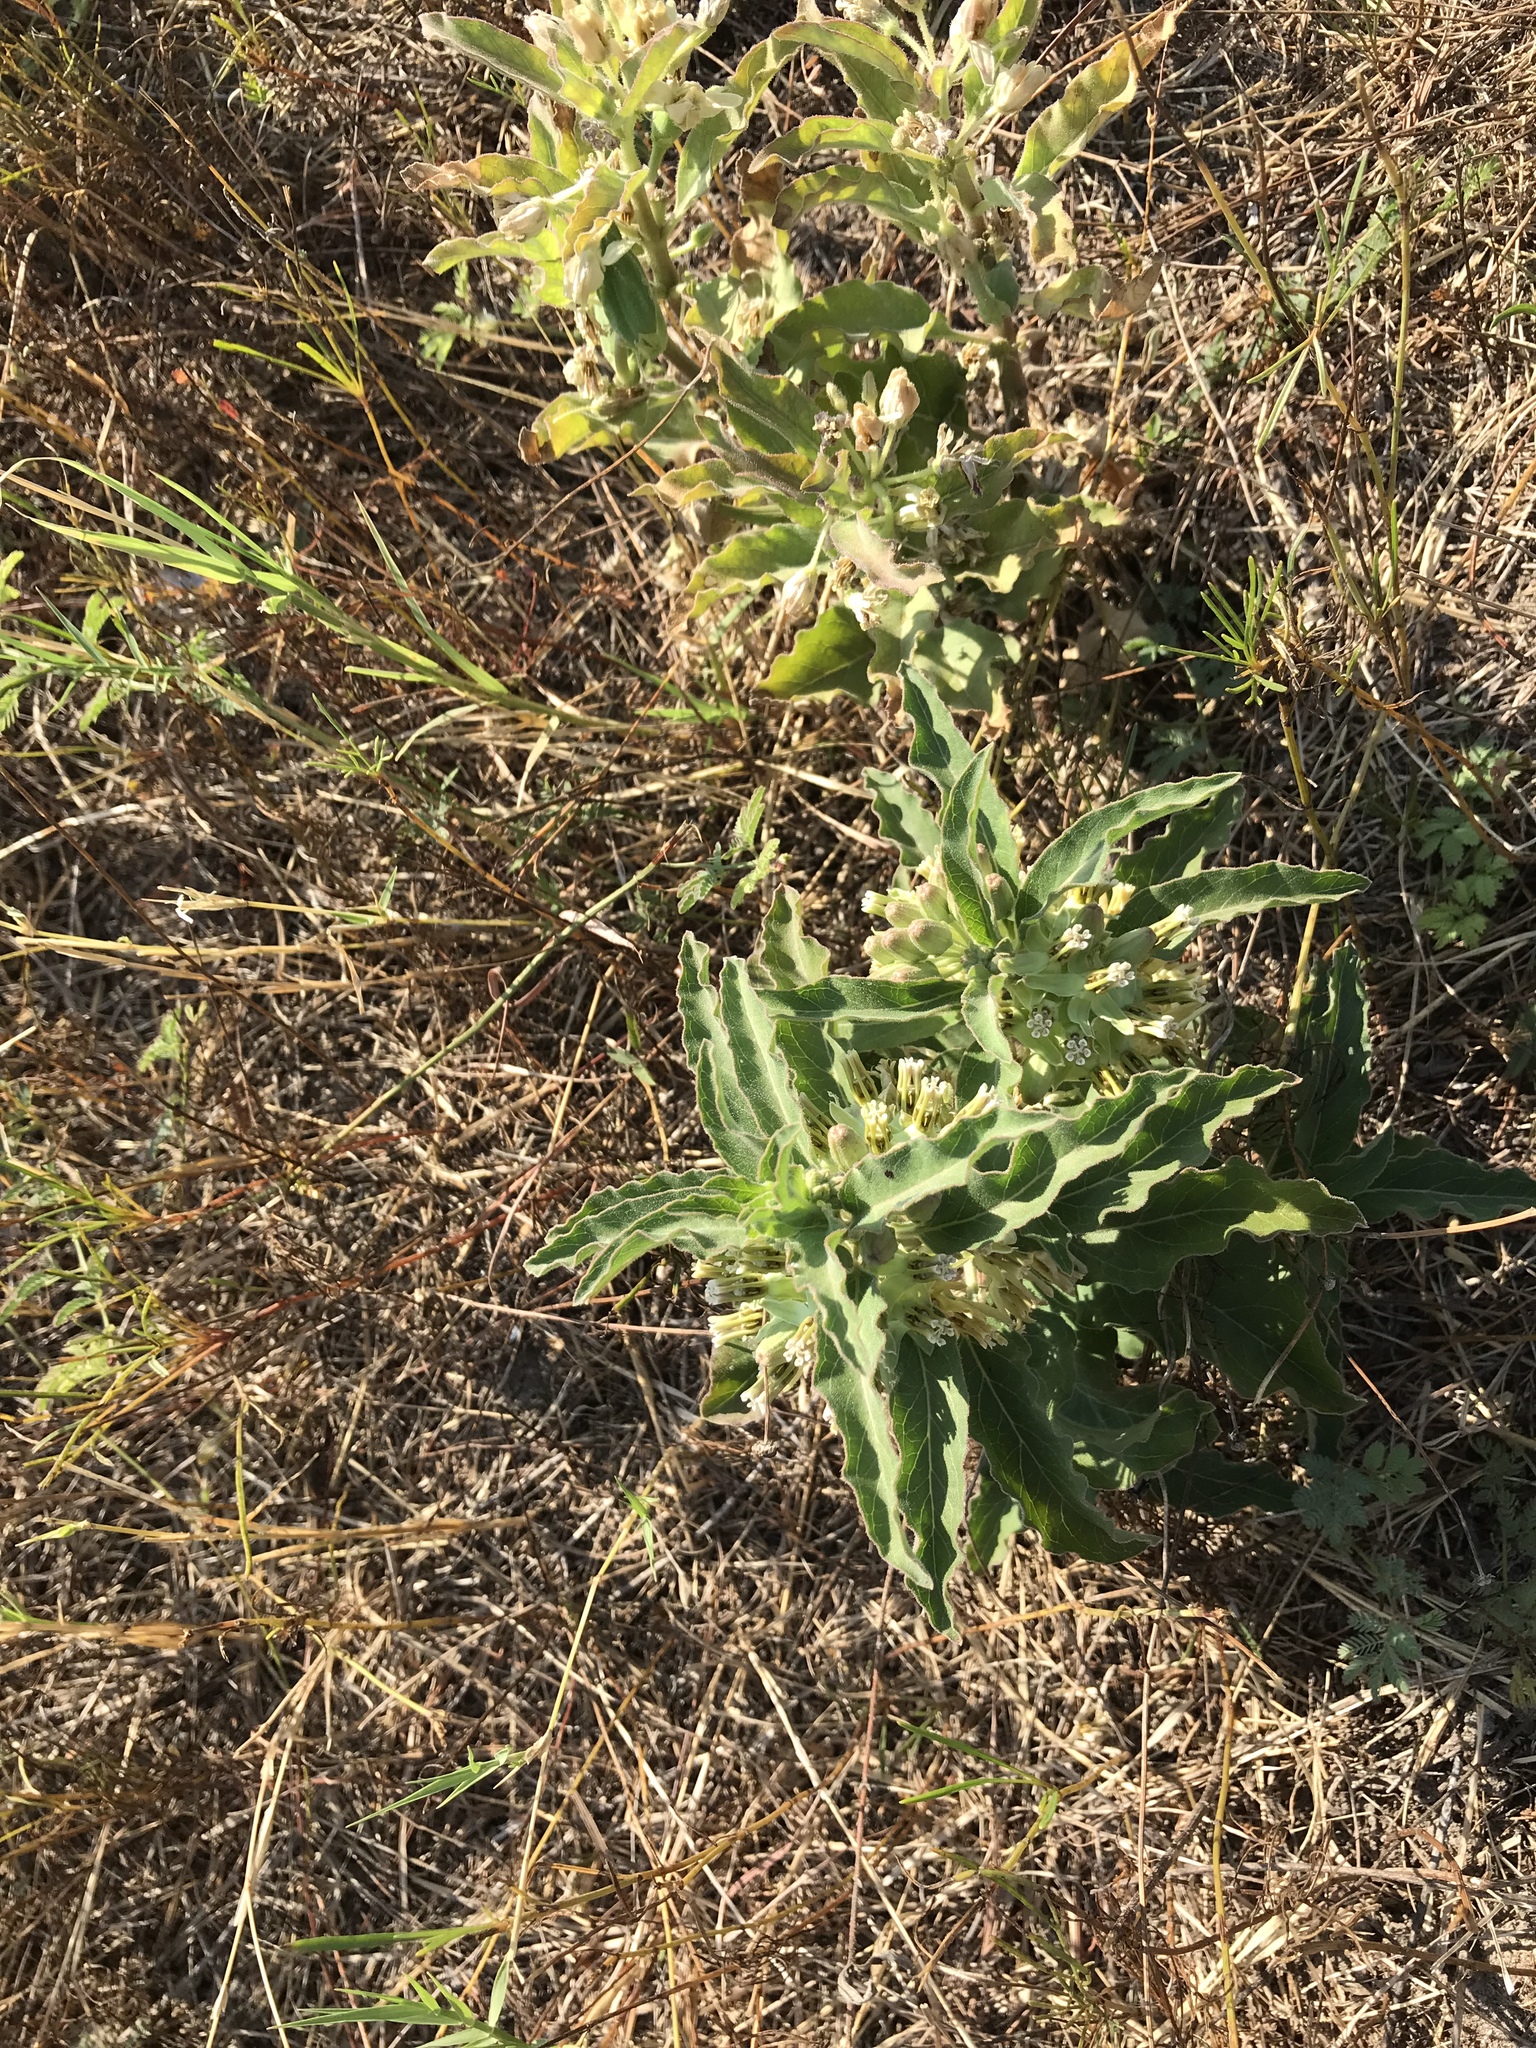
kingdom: Plantae
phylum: Tracheophyta
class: Magnoliopsida
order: Gentianales
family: Apocynaceae
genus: Asclepias
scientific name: Asclepias oenotheroides
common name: Zizotes milkweed
